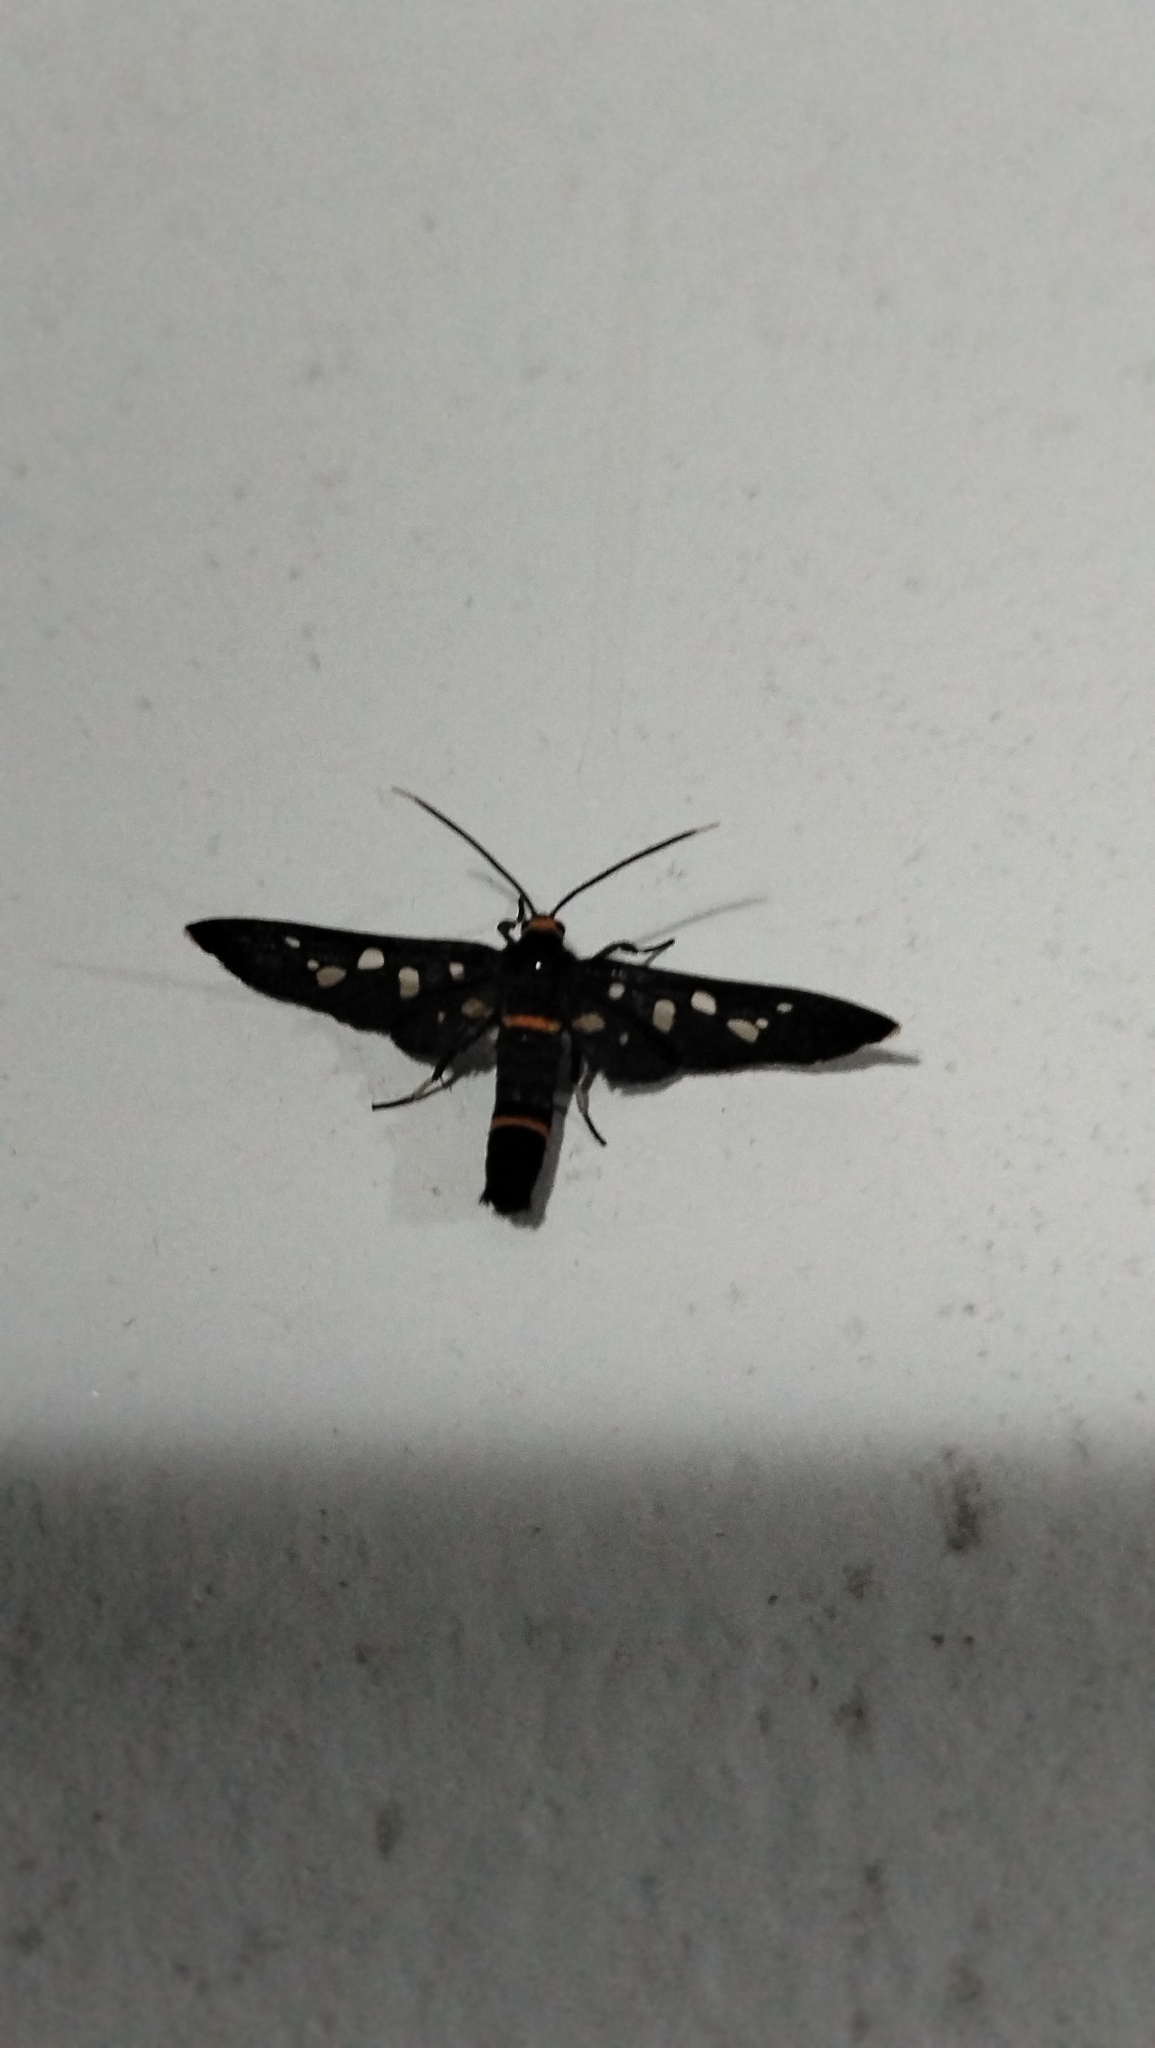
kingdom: Animalia
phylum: Arthropoda
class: Insecta
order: Lepidoptera
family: Erebidae
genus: Amata
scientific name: Amata bicincta
